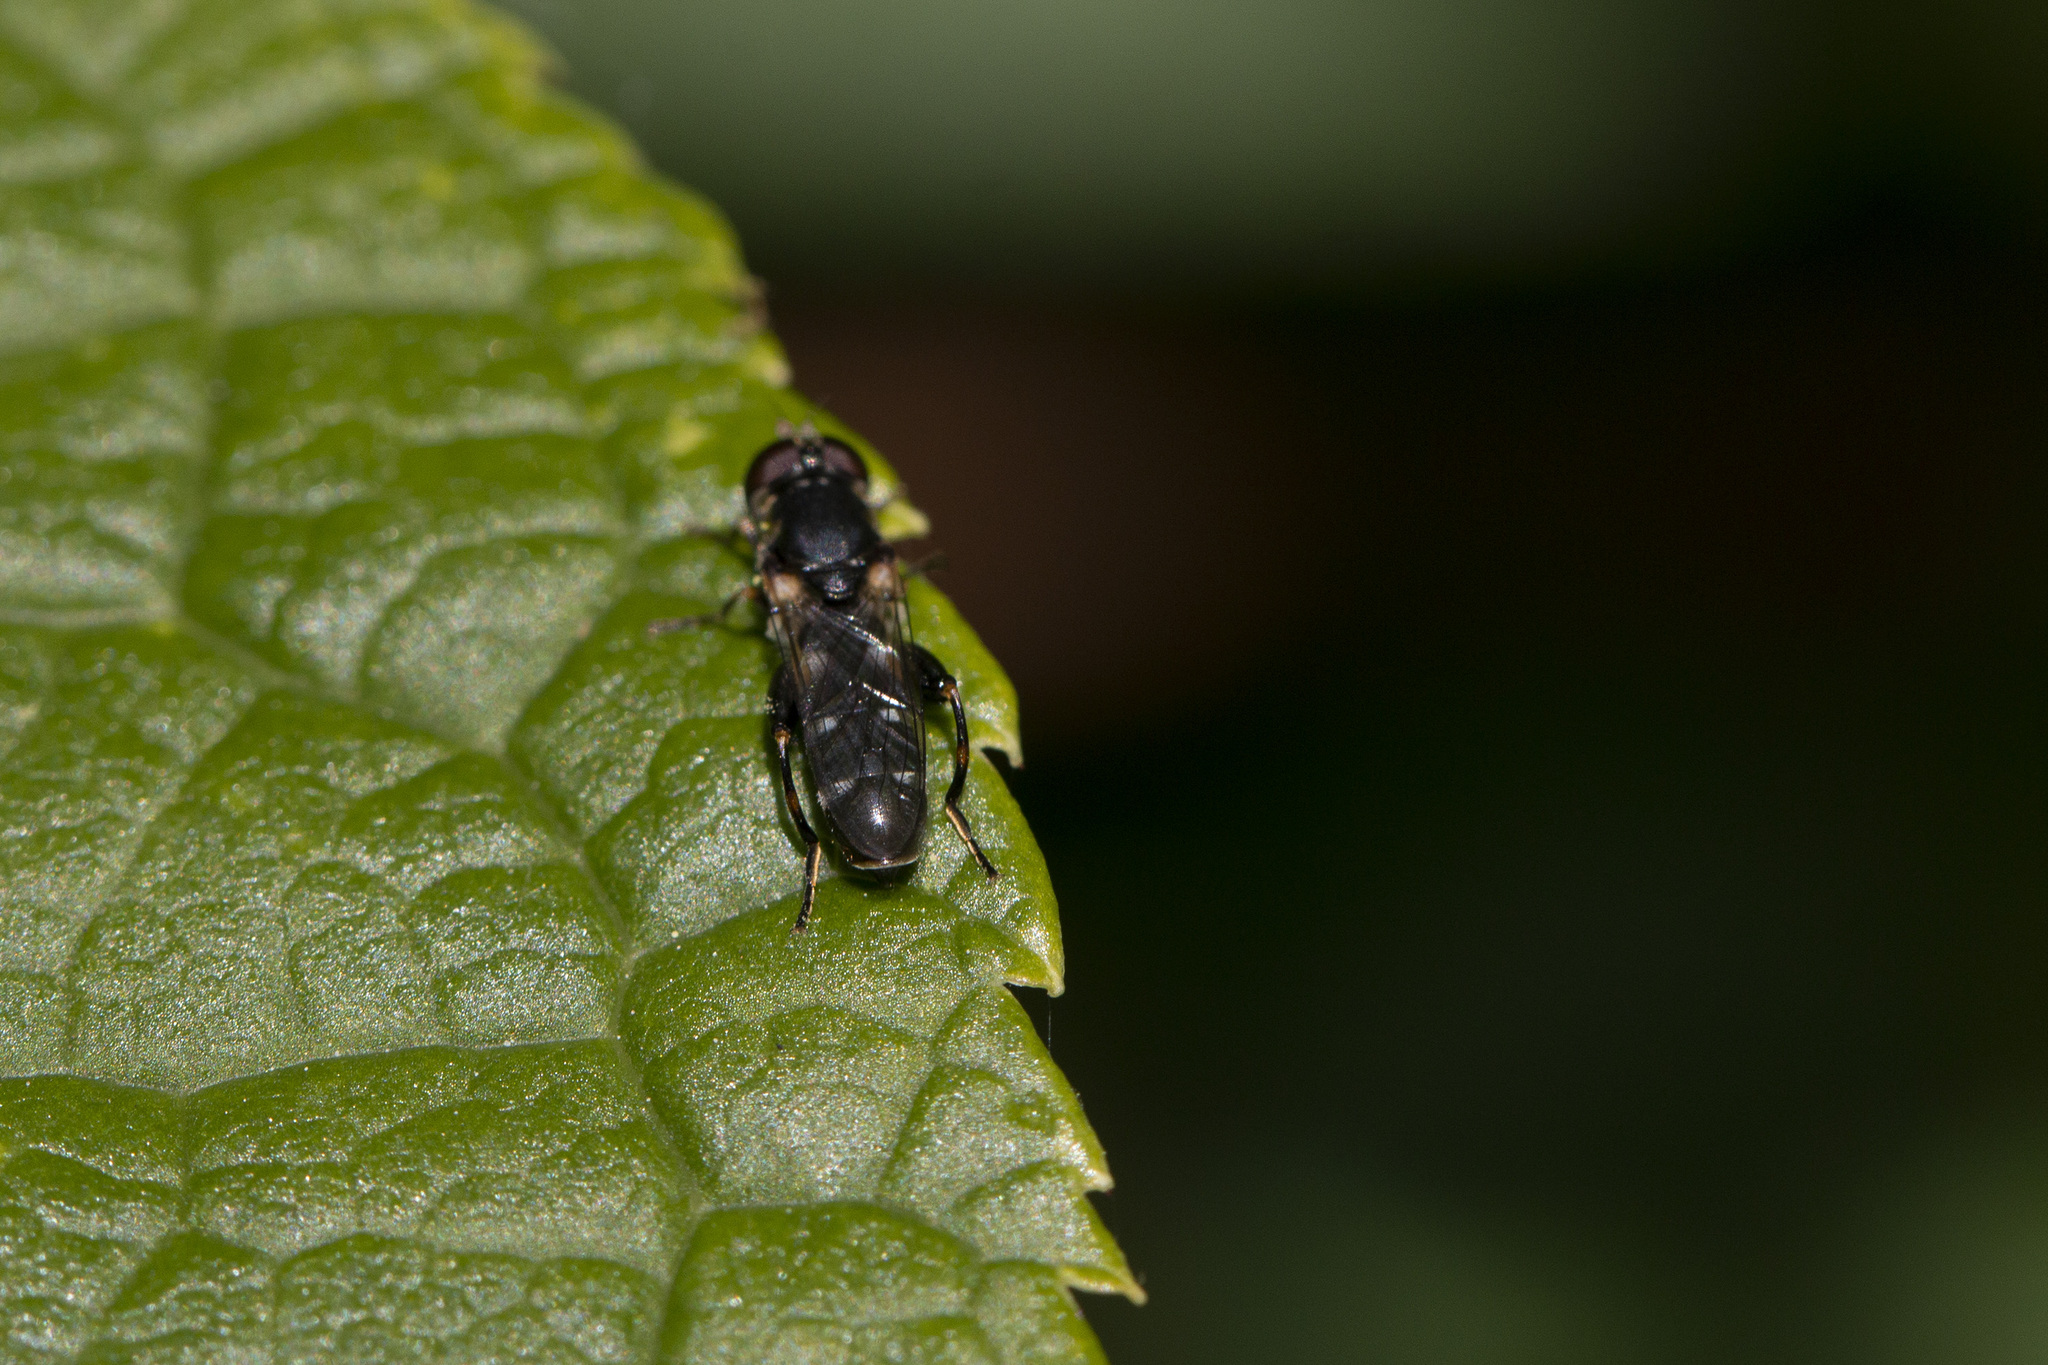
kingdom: Animalia
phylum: Arthropoda
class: Insecta
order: Diptera
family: Syrphidae
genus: Syritta
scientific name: Syritta pipiens
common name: Hover fly
